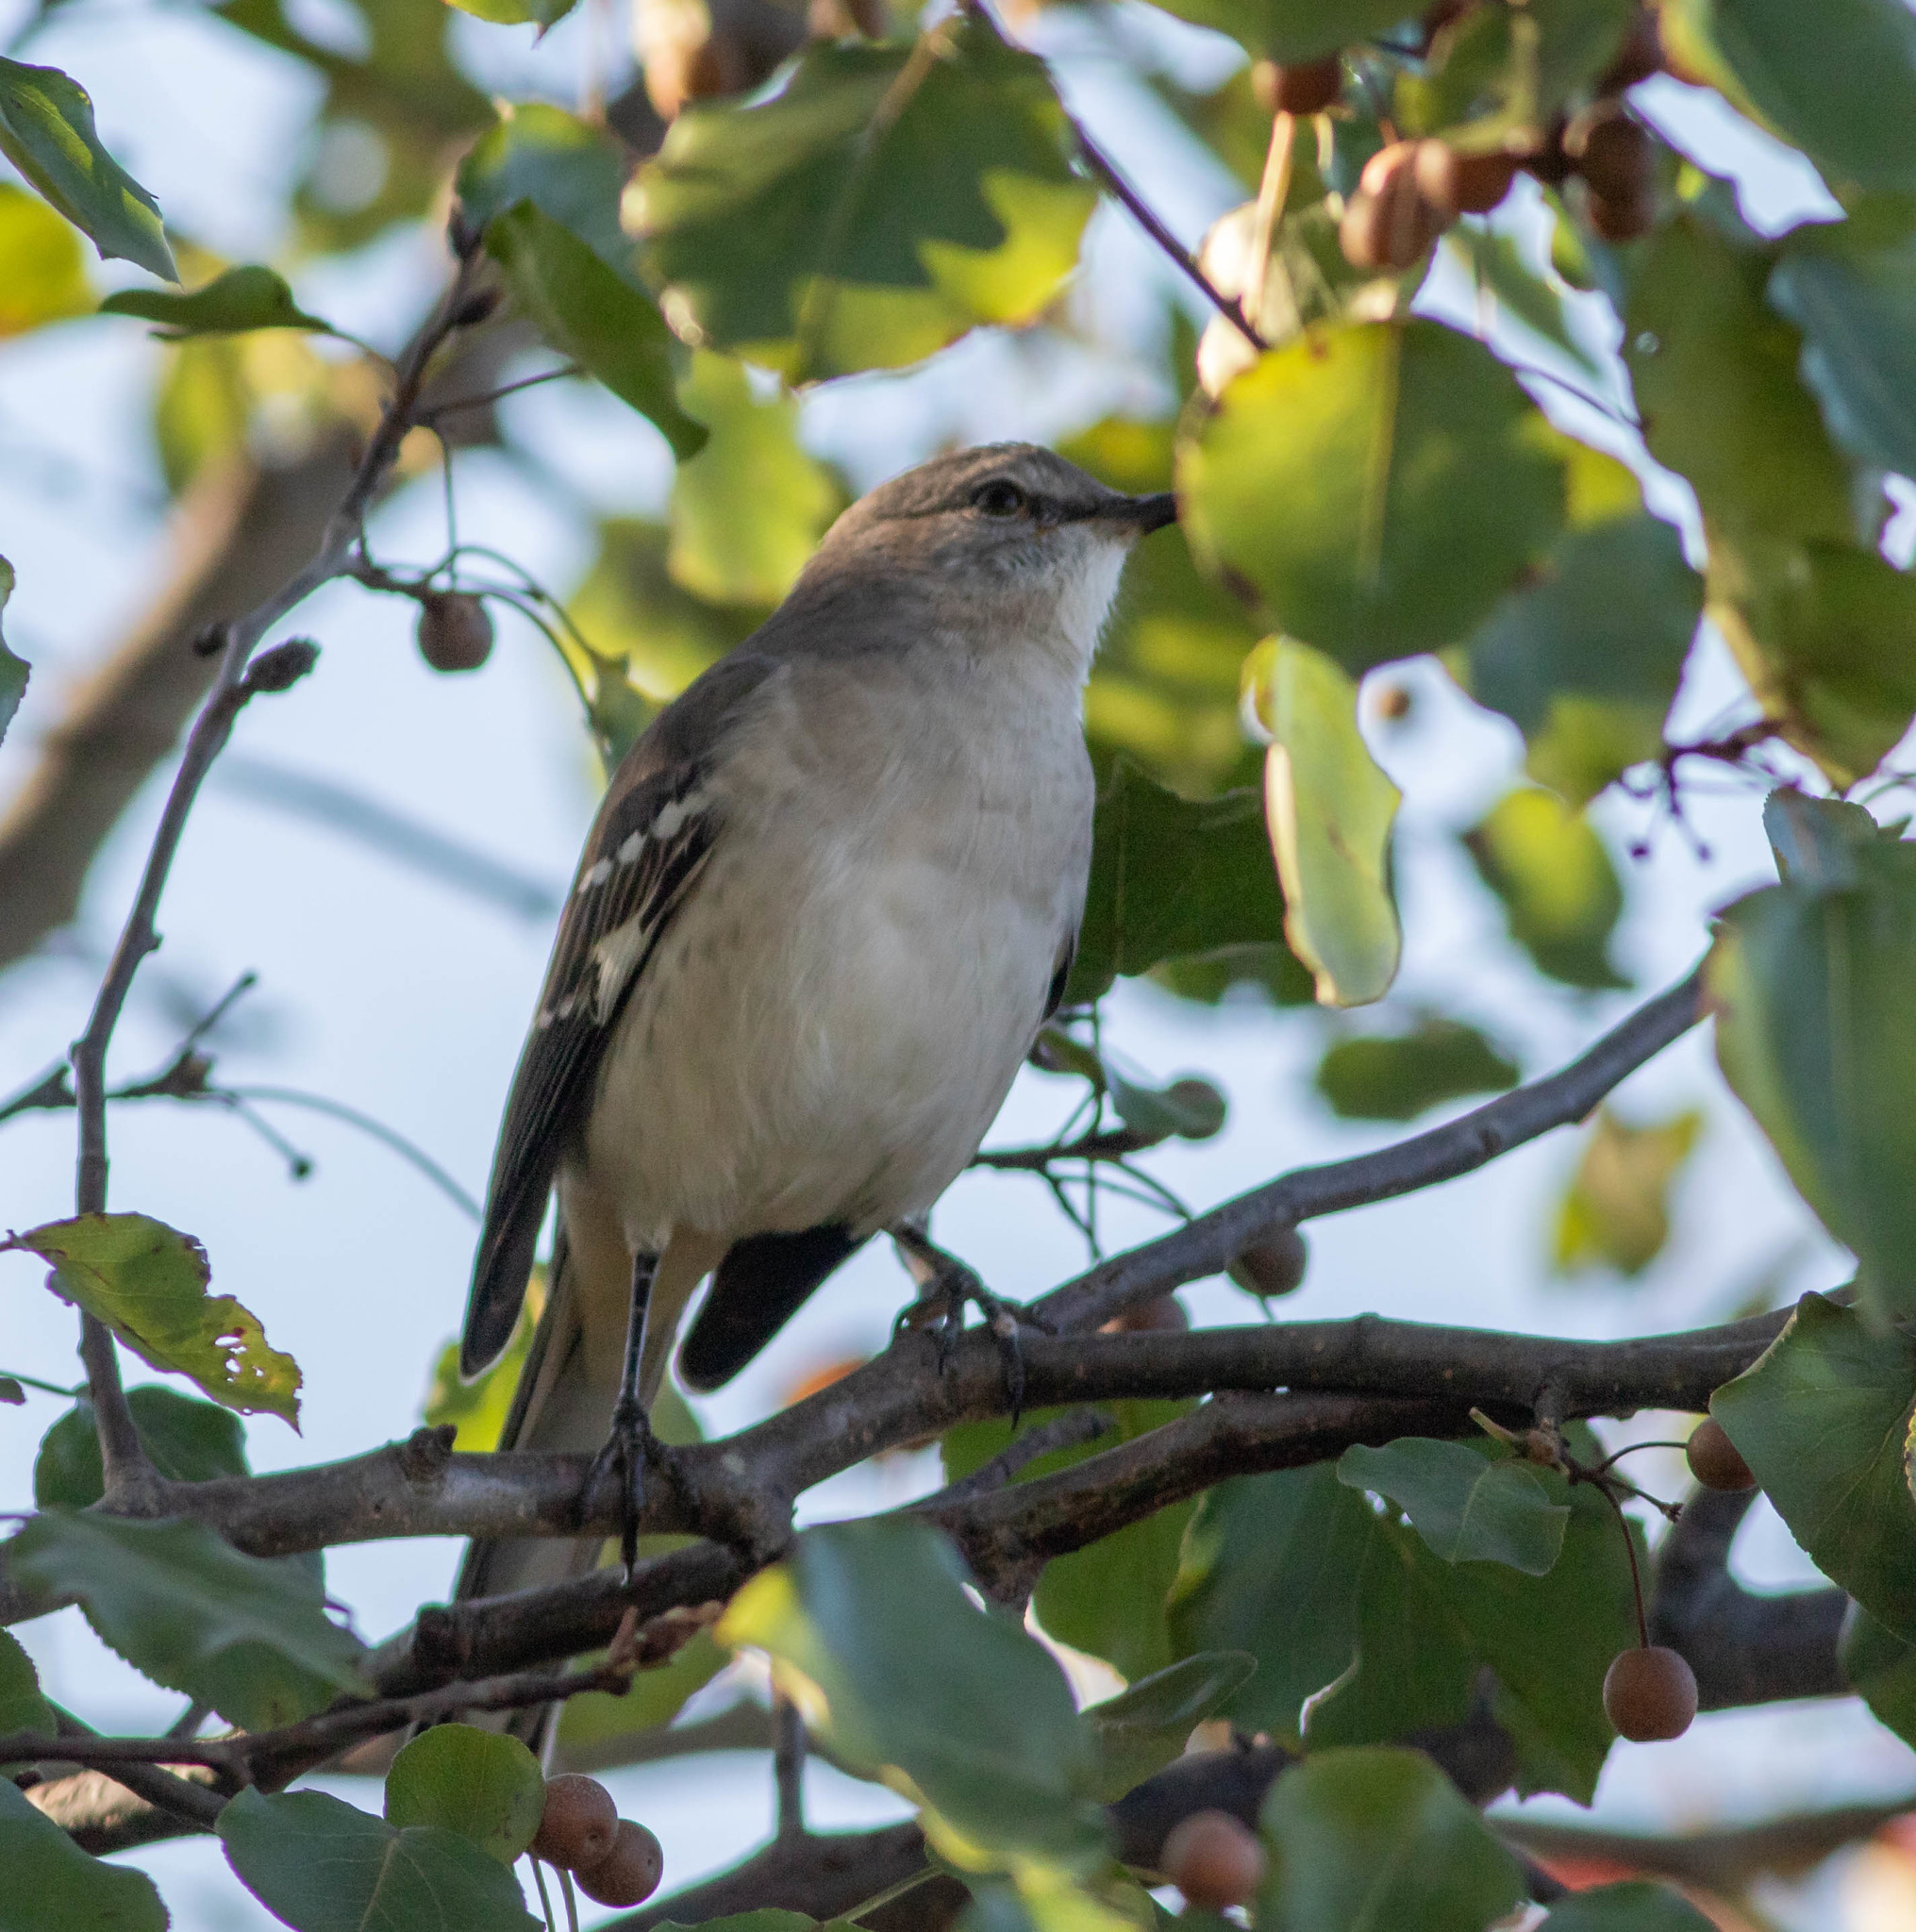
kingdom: Animalia
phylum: Chordata
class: Aves
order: Passeriformes
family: Mimidae
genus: Mimus
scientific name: Mimus polyglottos
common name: Northern mockingbird
